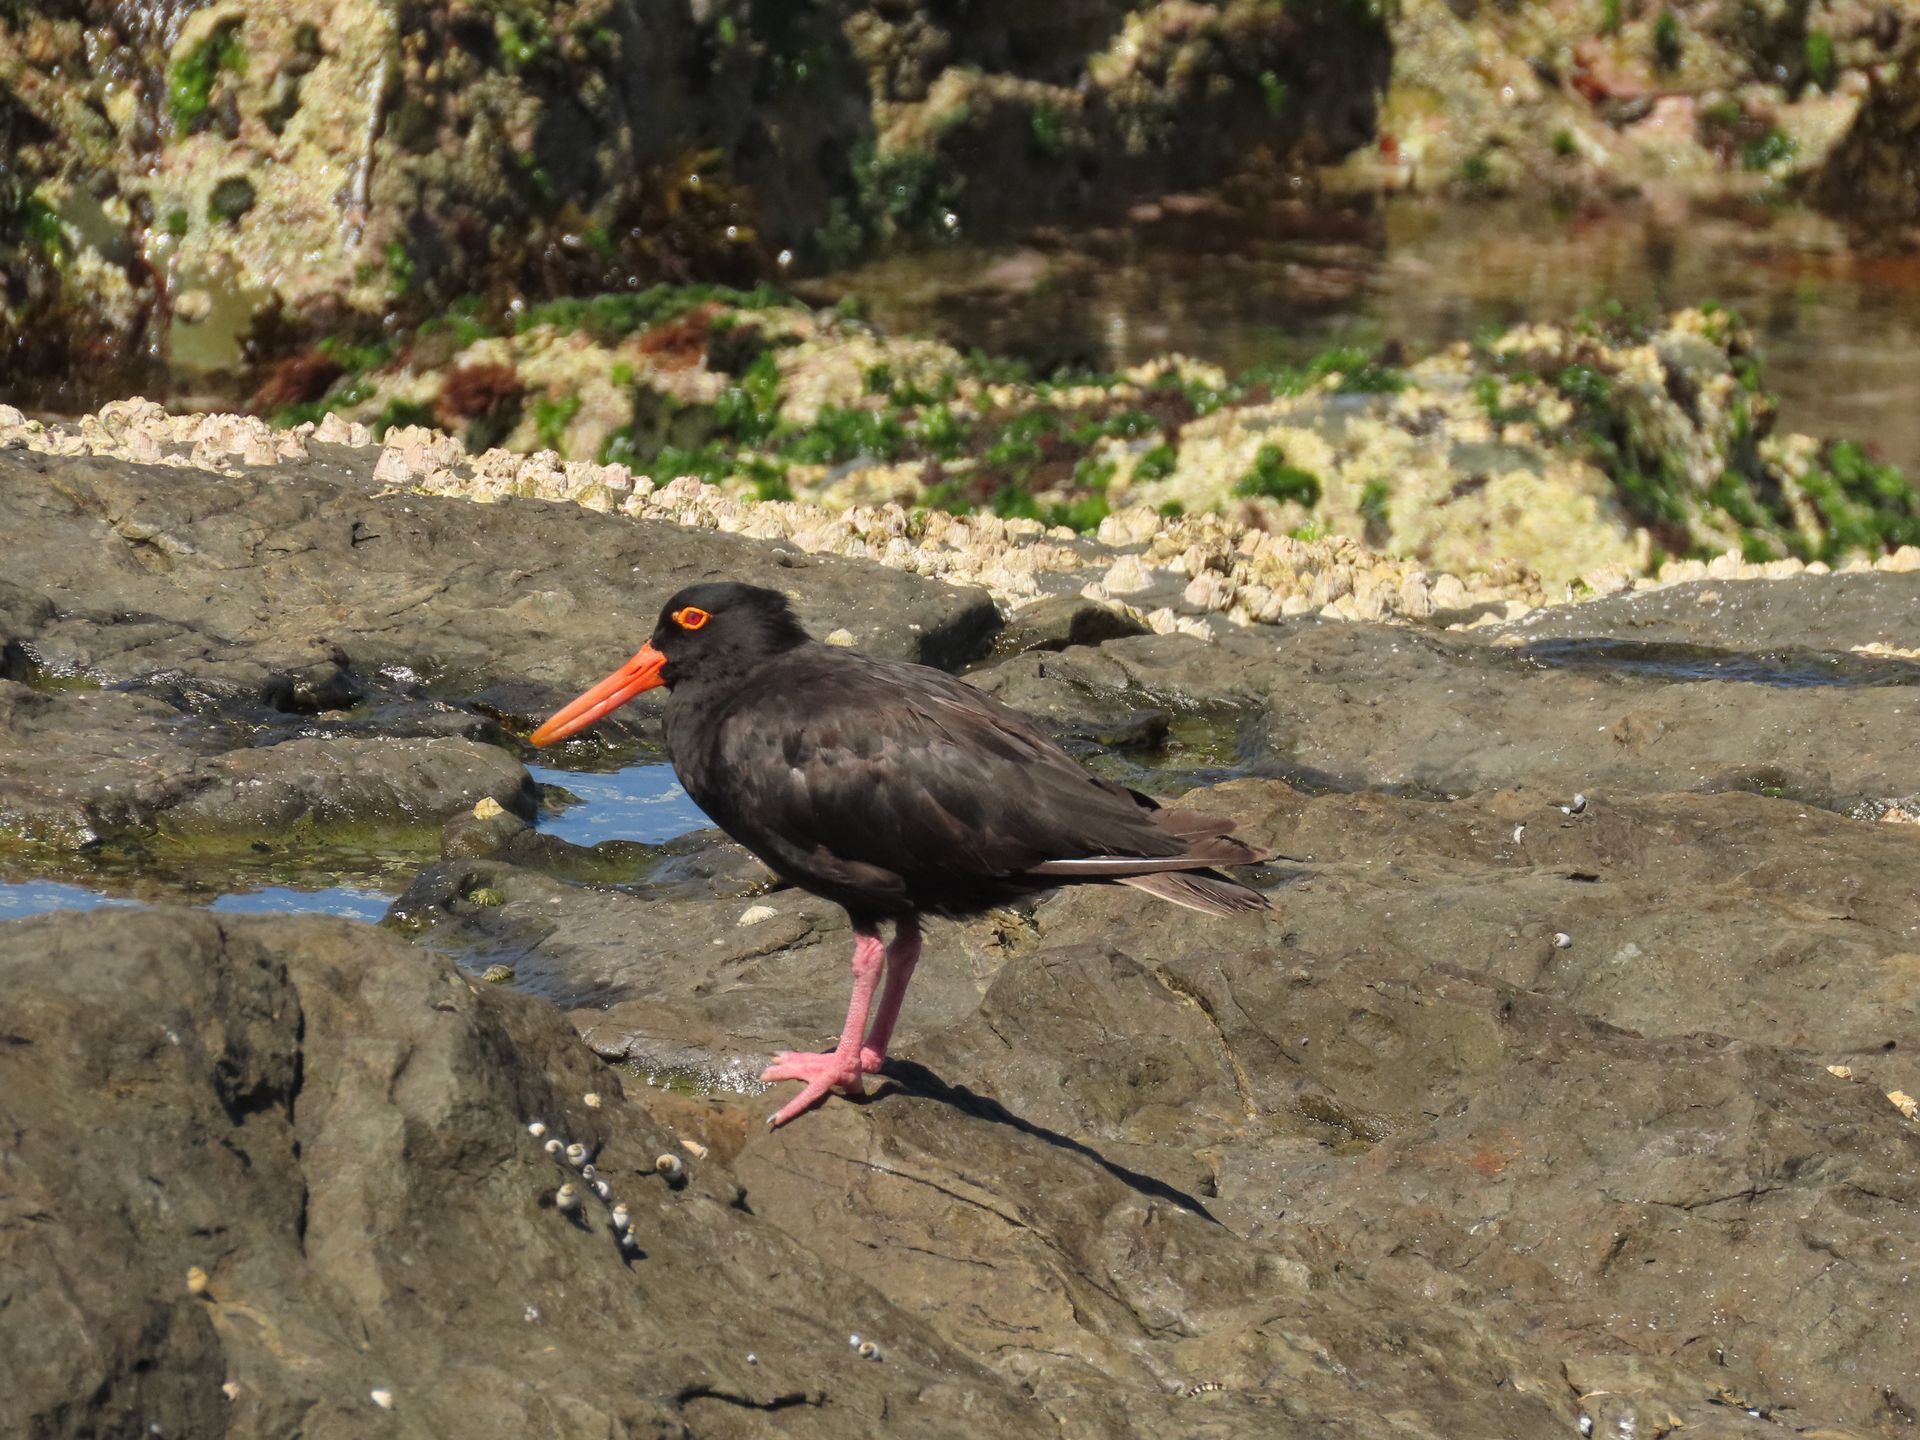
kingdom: Animalia
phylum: Chordata
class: Aves
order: Charadriiformes
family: Haematopodidae
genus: Haematopus
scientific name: Haematopus fuliginosus
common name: Sooty oystercatcher
